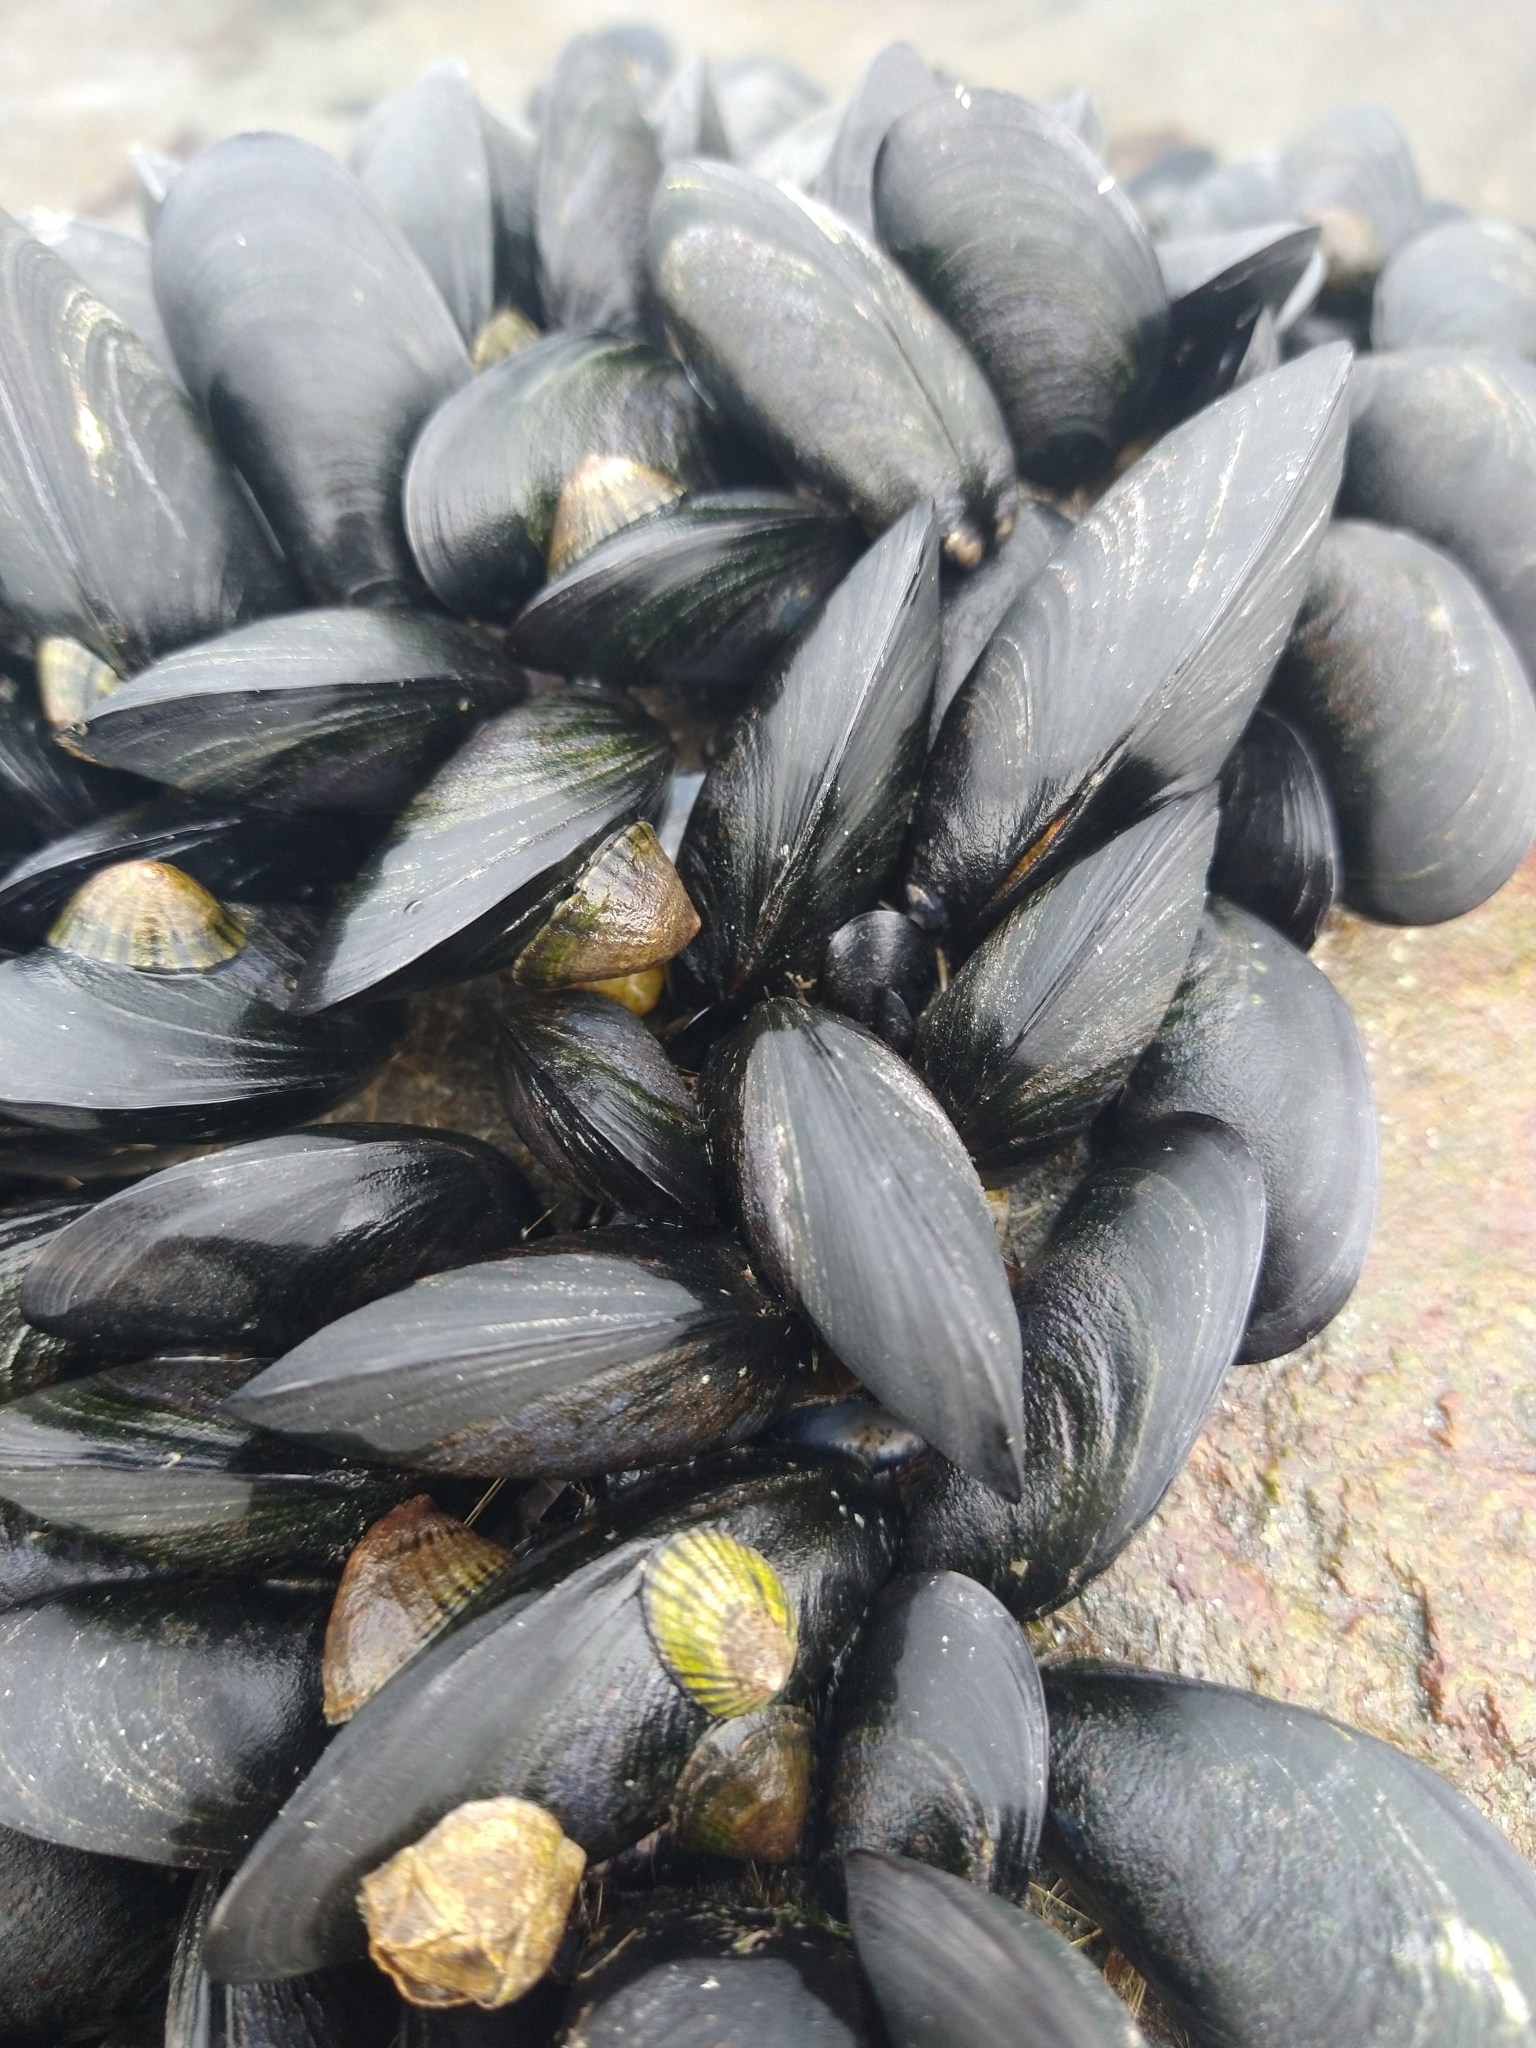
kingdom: Animalia
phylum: Mollusca
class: Bivalvia
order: Mytilida
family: Mytilidae
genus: Mytilus
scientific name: Mytilus chilensis
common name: Chilean mussel
